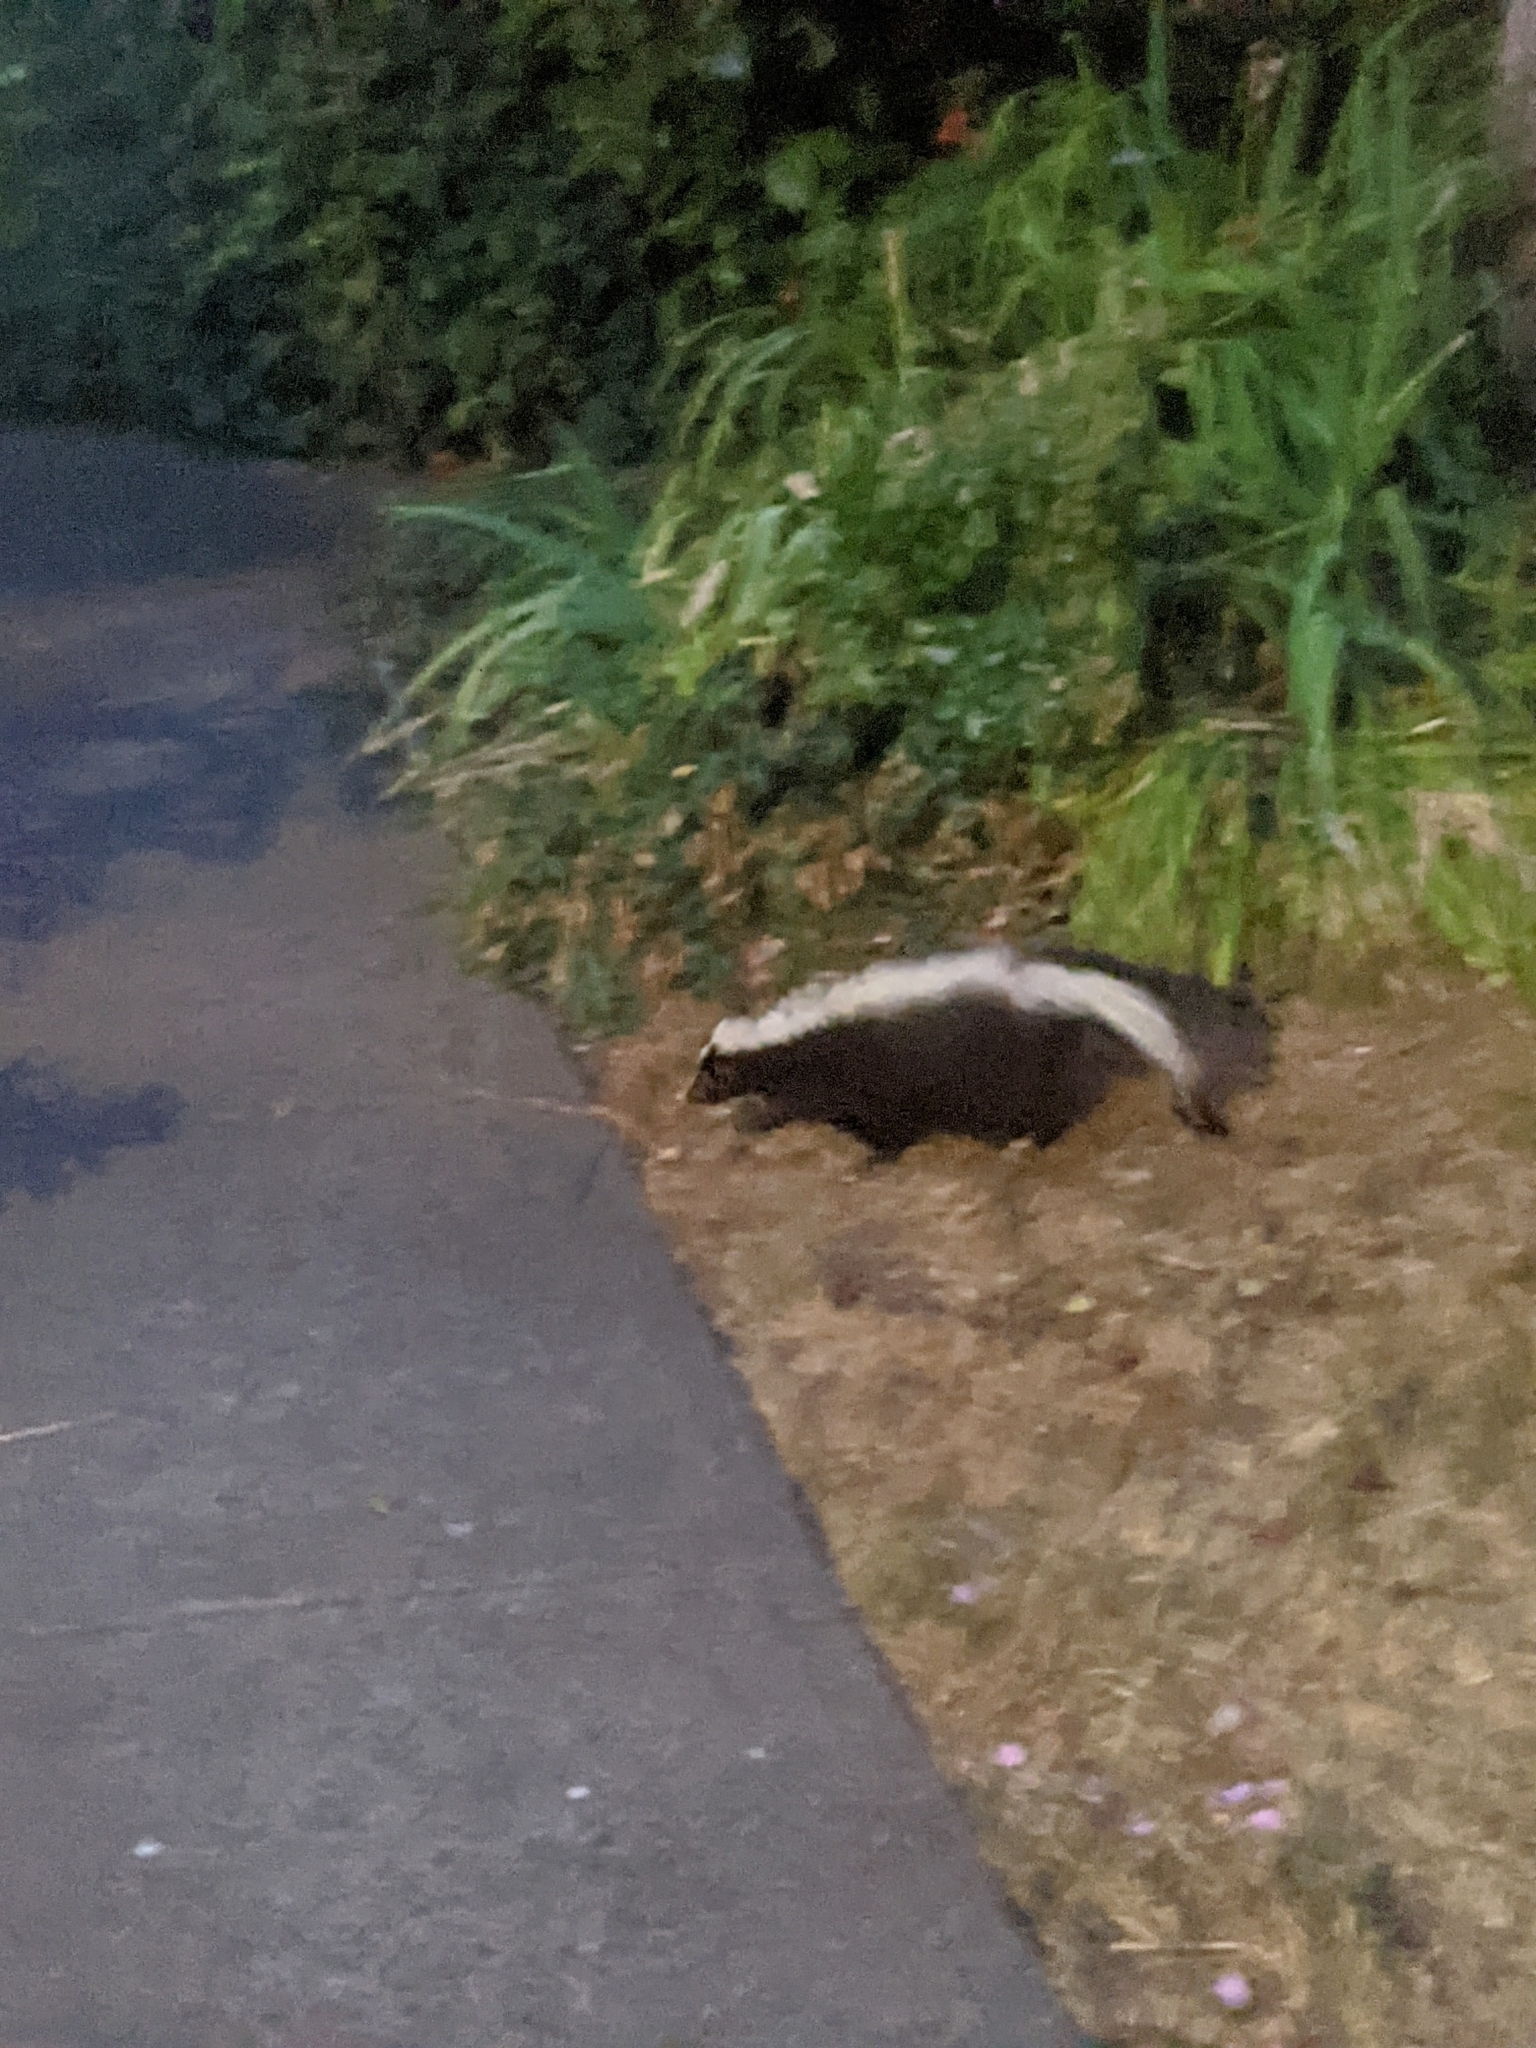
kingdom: Animalia
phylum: Chordata
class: Mammalia
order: Carnivora
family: Mephitidae
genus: Mephitis
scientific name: Mephitis mephitis
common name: Striped skunk
